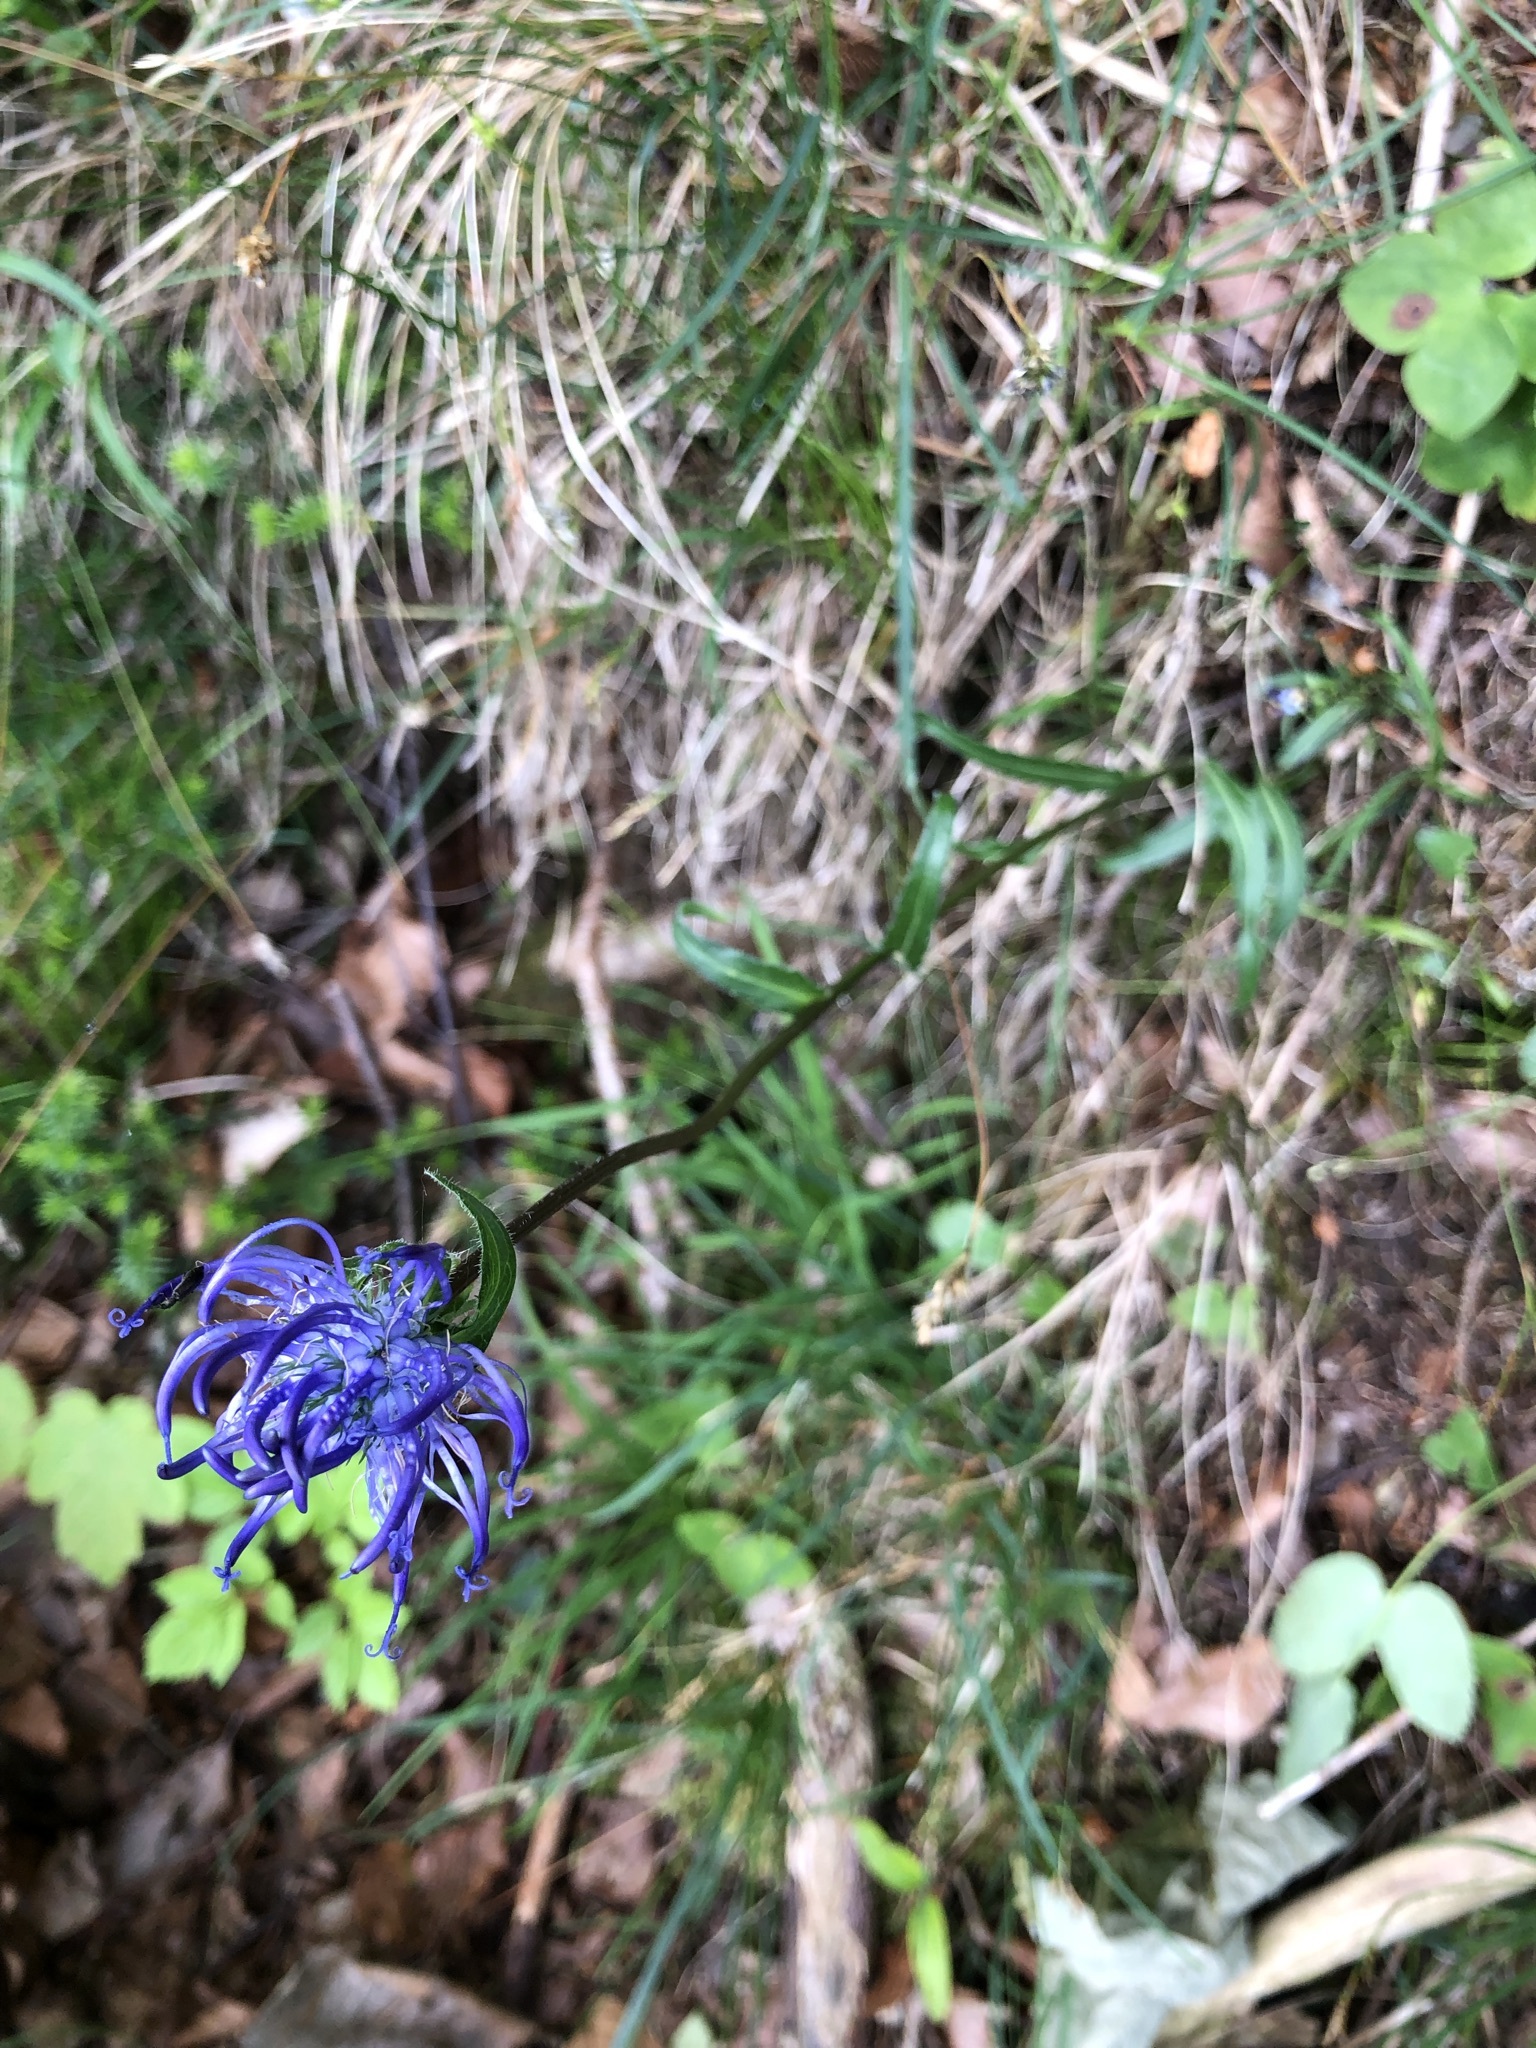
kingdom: Plantae
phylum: Tracheophyta
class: Magnoliopsida
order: Asterales
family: Campanulaceae
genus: Phyteuma
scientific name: Phyteuma orbiculare
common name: Round-headed rampion
